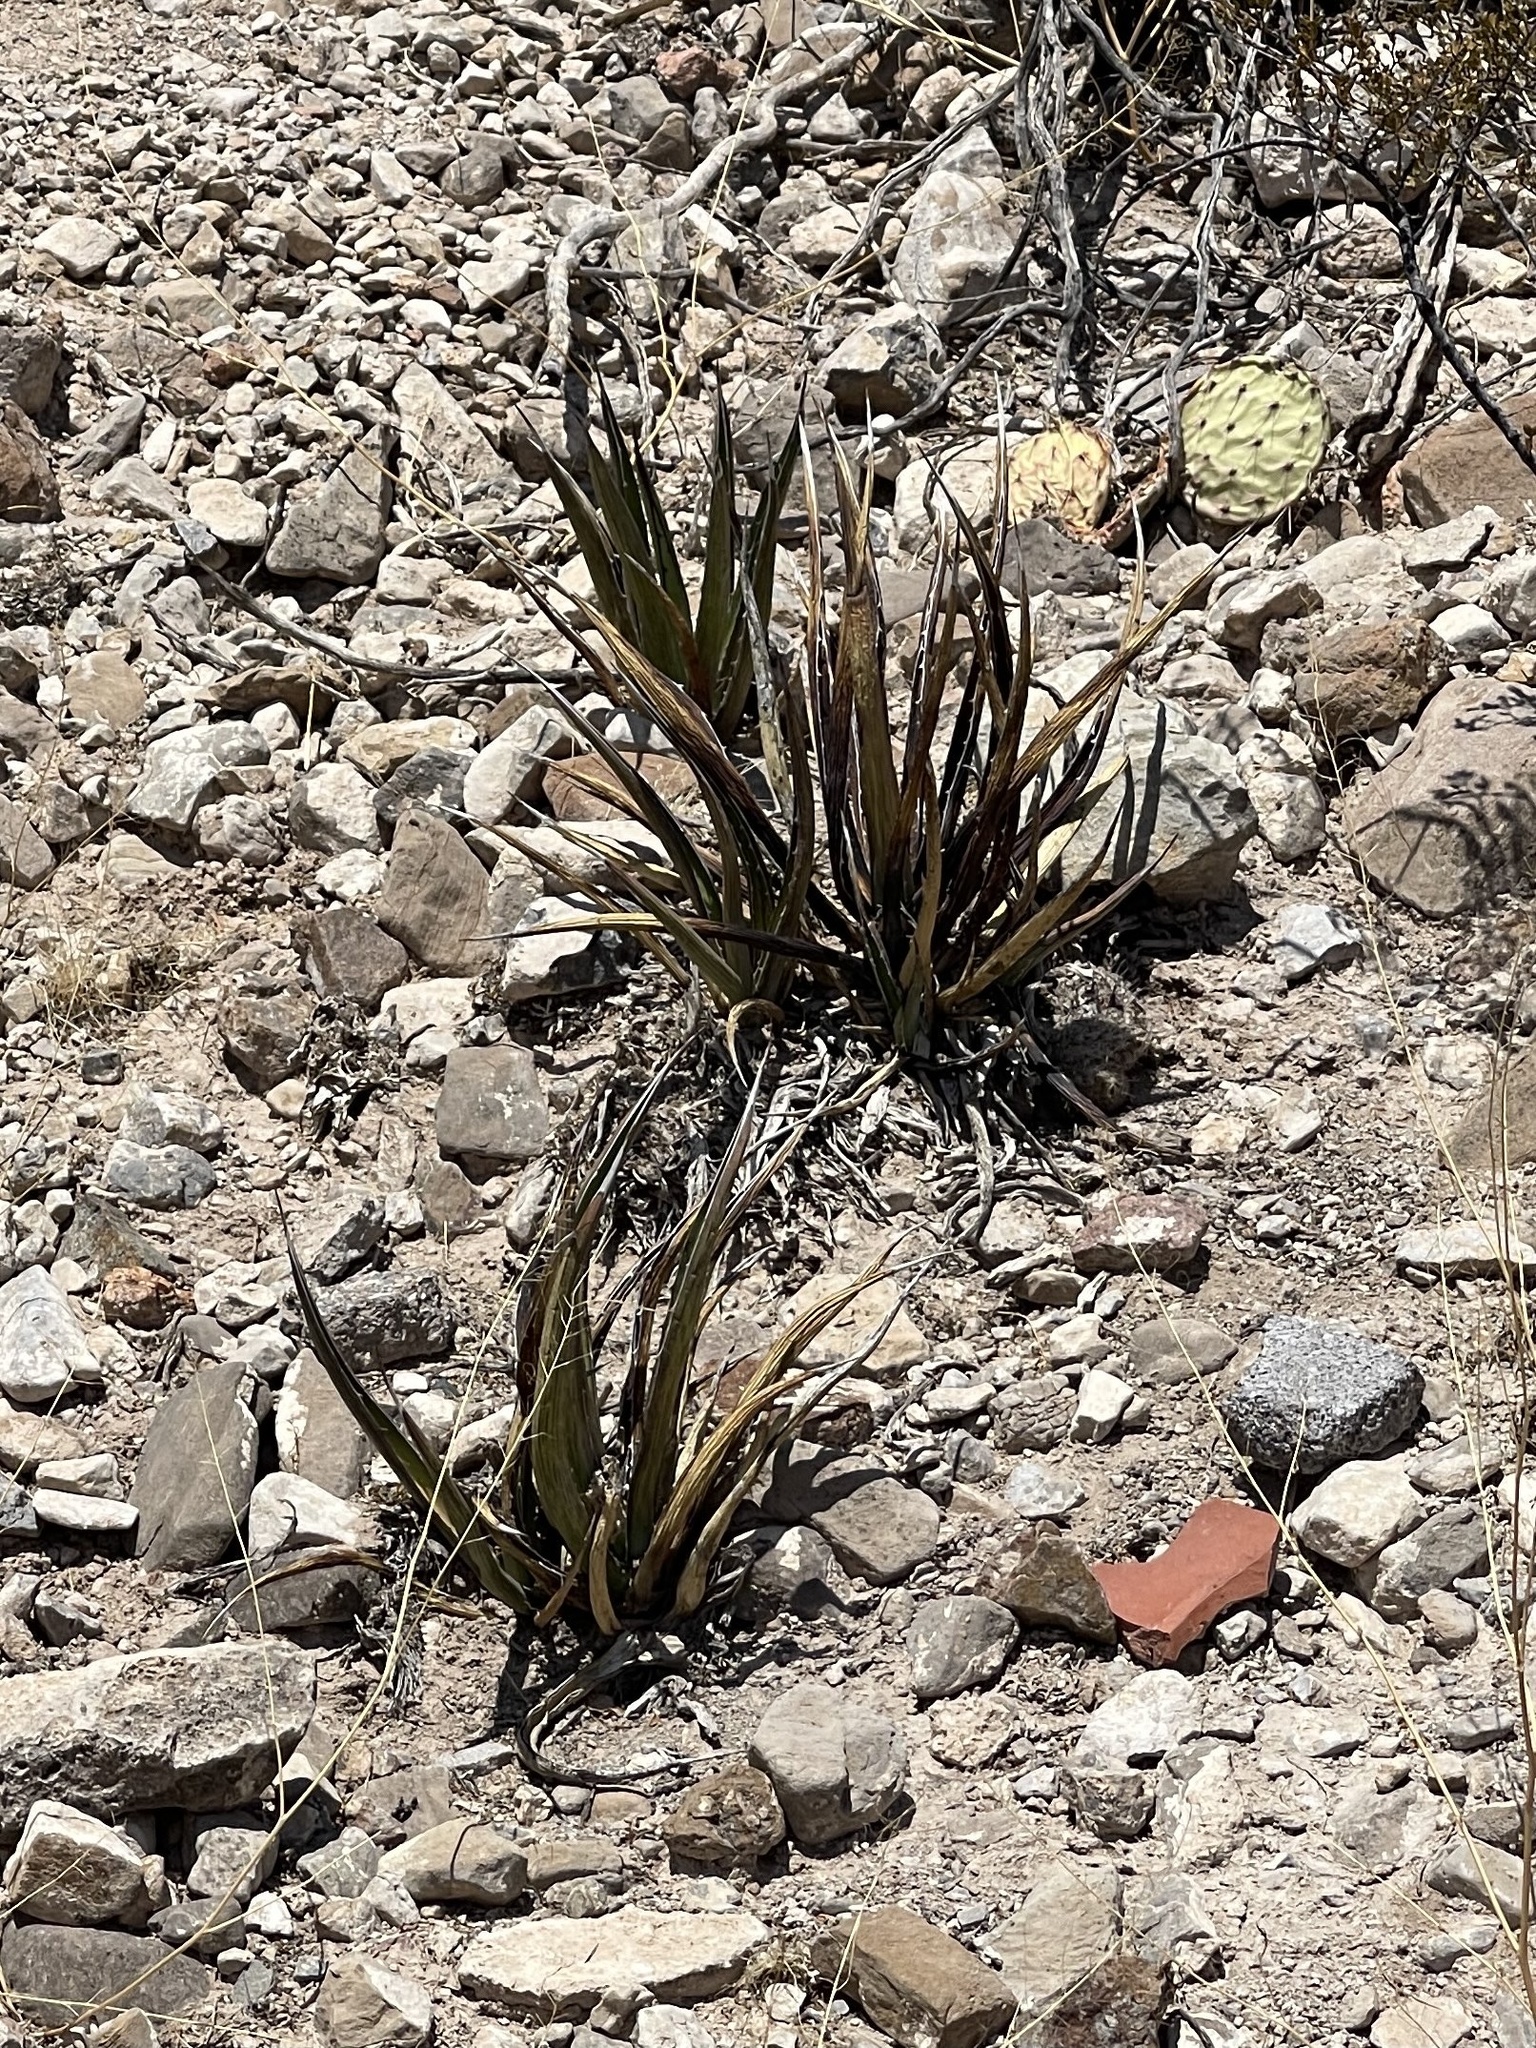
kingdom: Plantae
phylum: Tracheophyta
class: Liliopsida
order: Asparagales
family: Asparagaceae
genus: Agave
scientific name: Agave lechuguilla
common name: Lecheguilla agave
